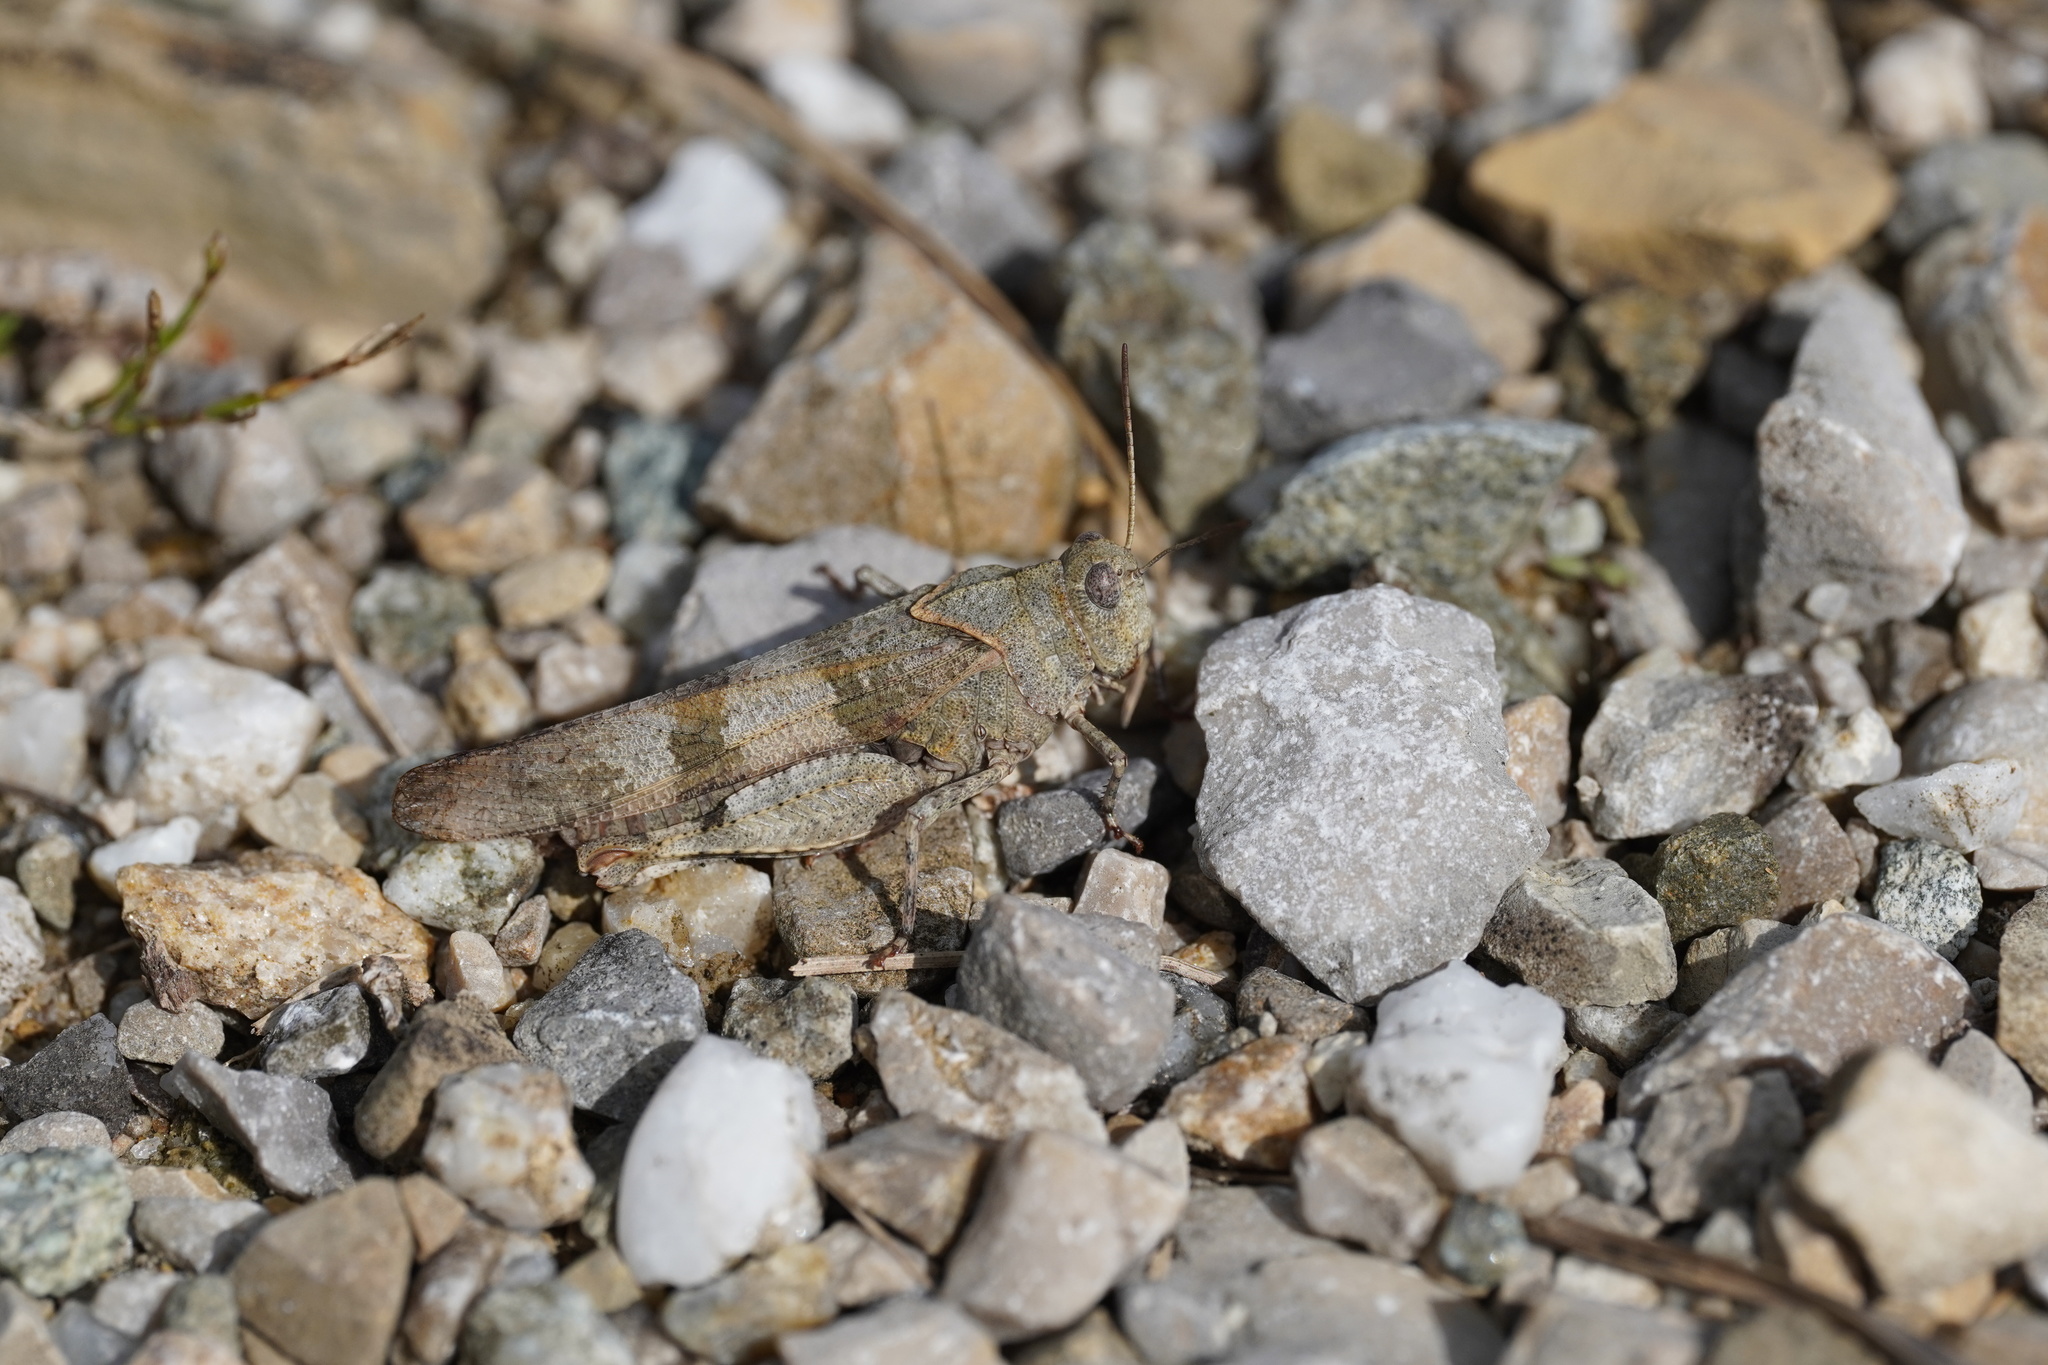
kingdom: Animalia
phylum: Arthropoda
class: Insecta
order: Orthoptera
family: Acrididae
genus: Oedipoda
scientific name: Oedipoda caerulescens
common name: Blue-winged grasshopper
